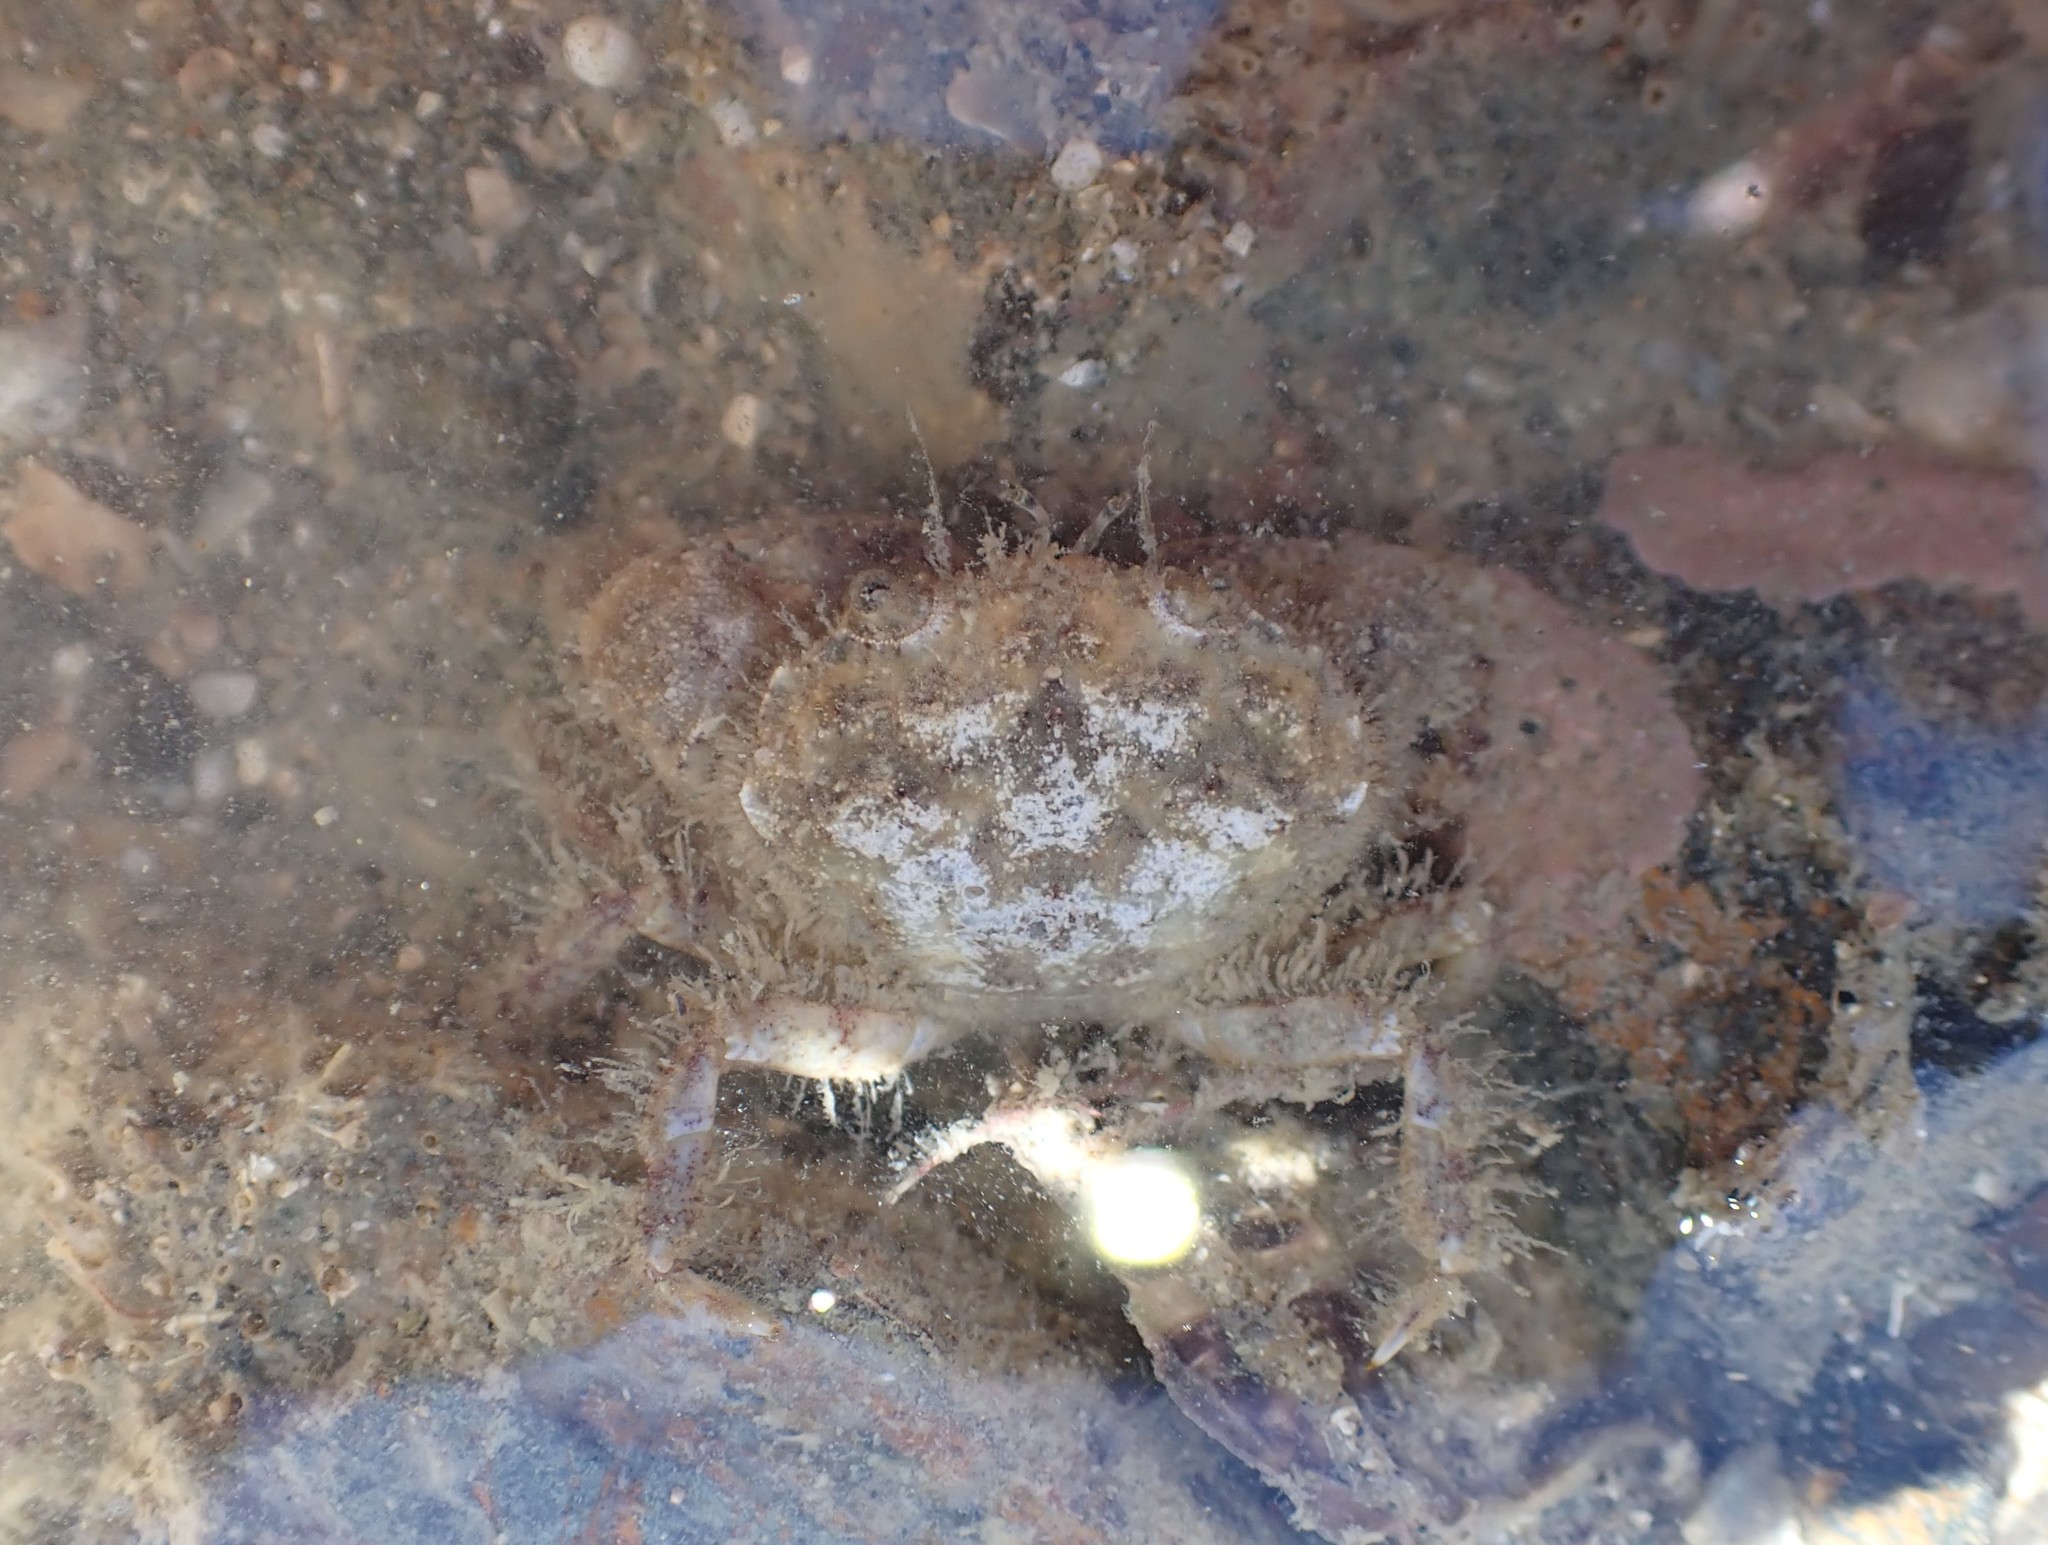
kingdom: Animalia
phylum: Arthropoda
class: Malacostraca
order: Decapoda
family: Pilumnidae
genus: Pilumnopeus
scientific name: Pilumnopeus serratifrons
